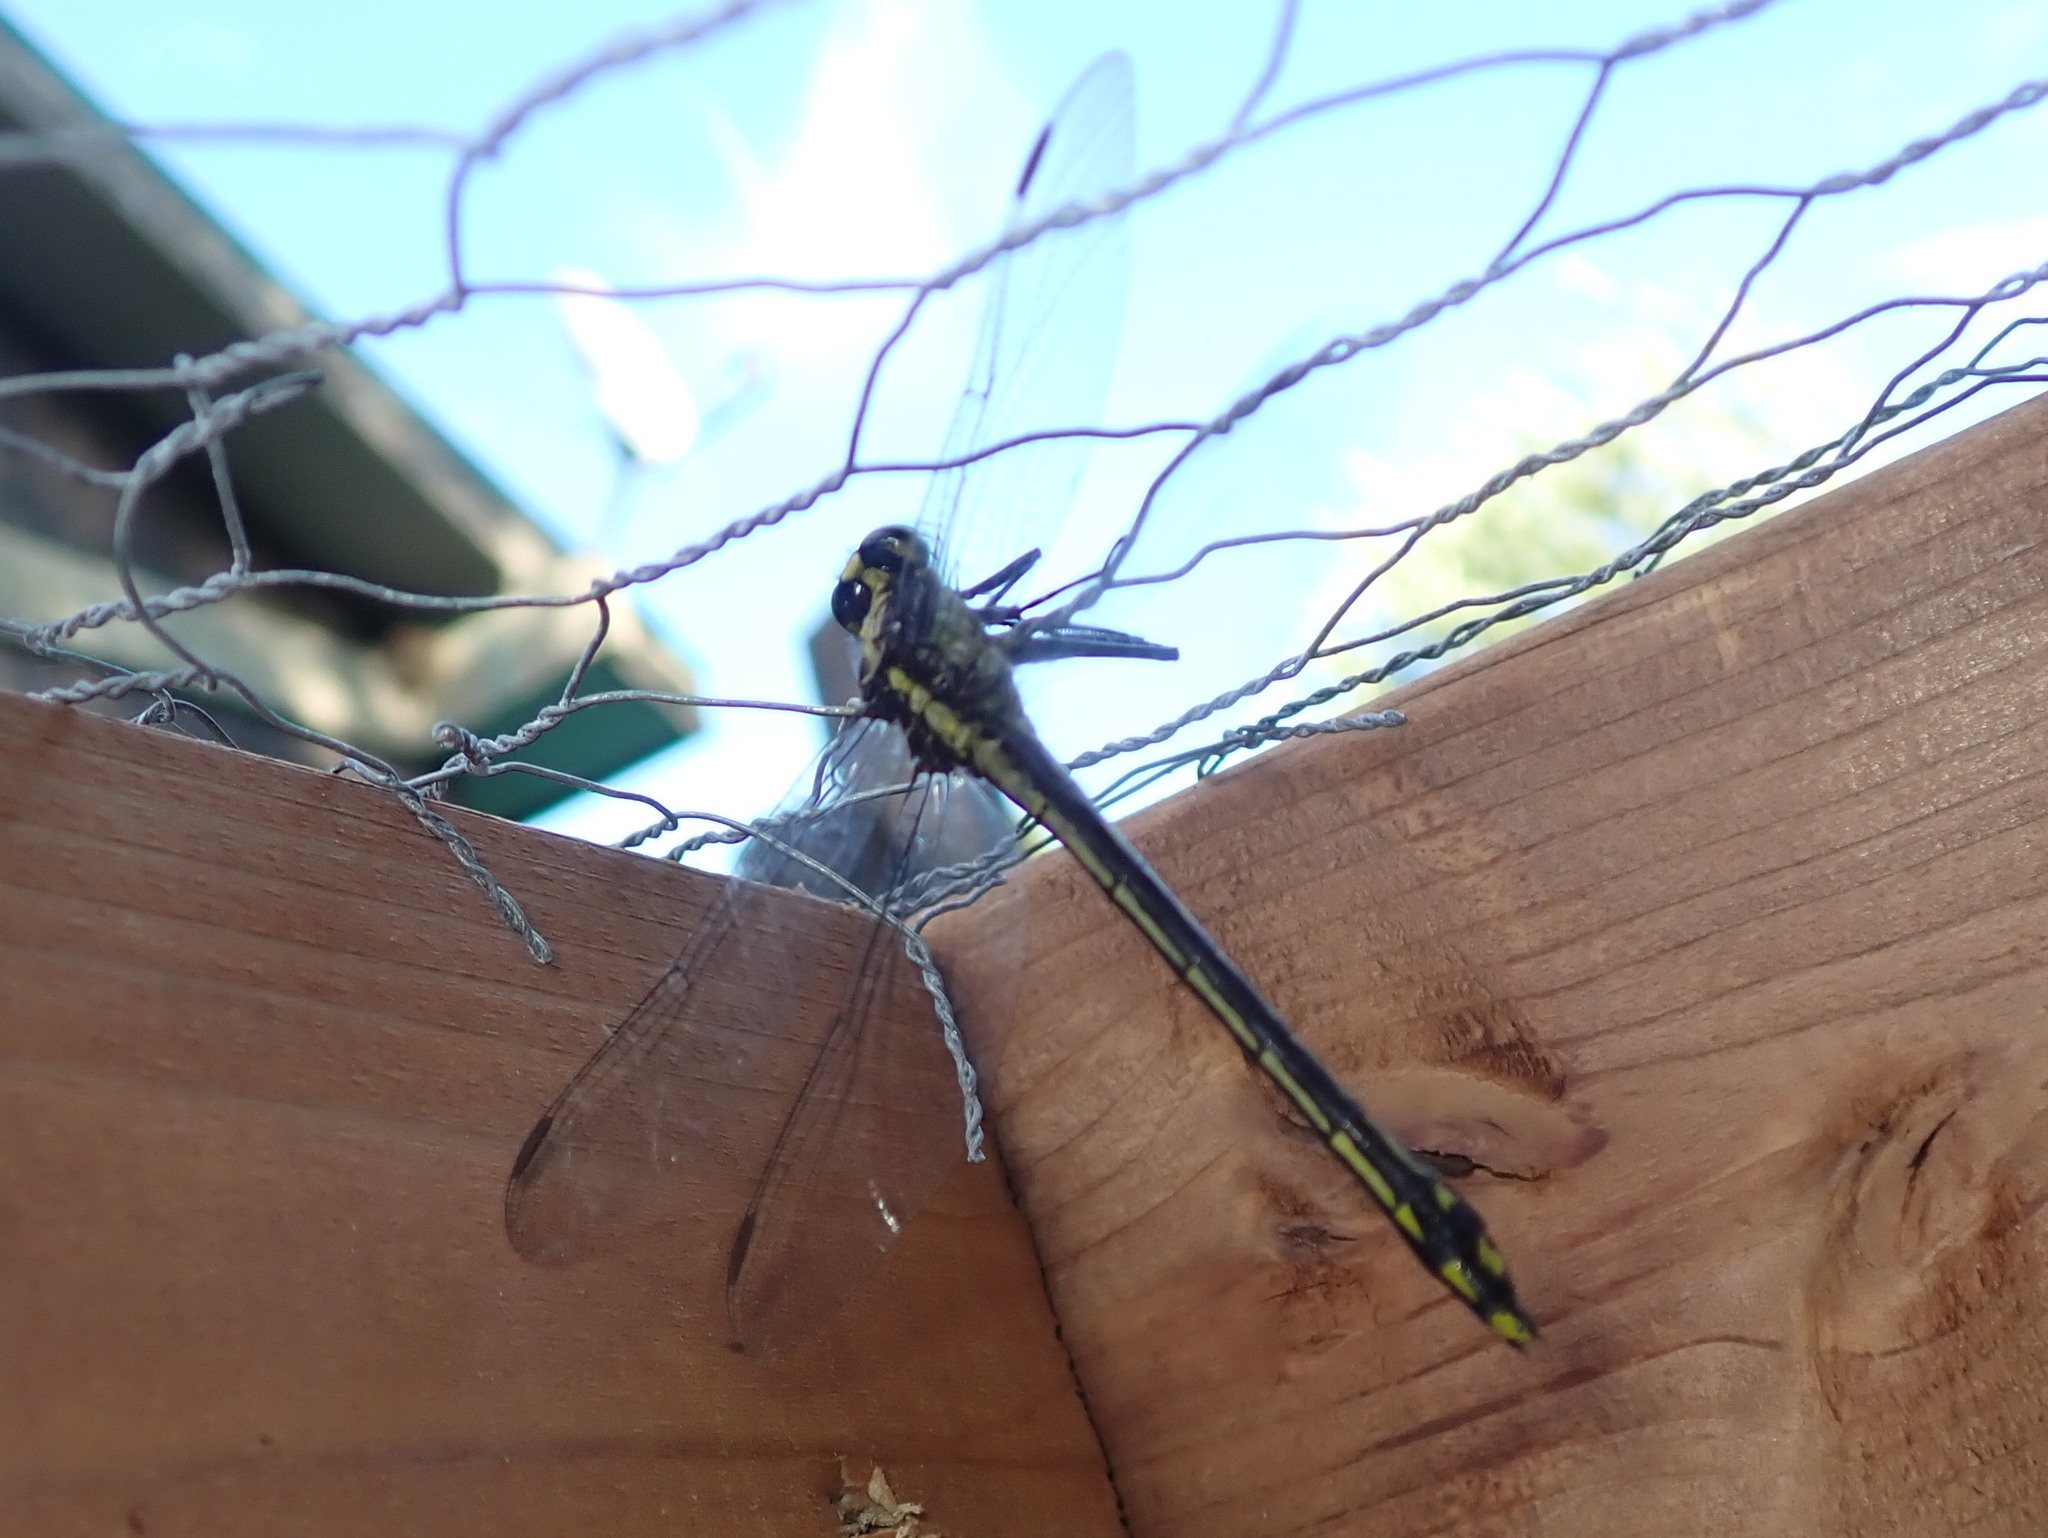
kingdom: Animalia
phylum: Arthropoda
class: Insecta
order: Odonata
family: Gomphidae
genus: Dromogomphus
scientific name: Dromogomphus spinosus
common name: Black-shouldered spinyleg
